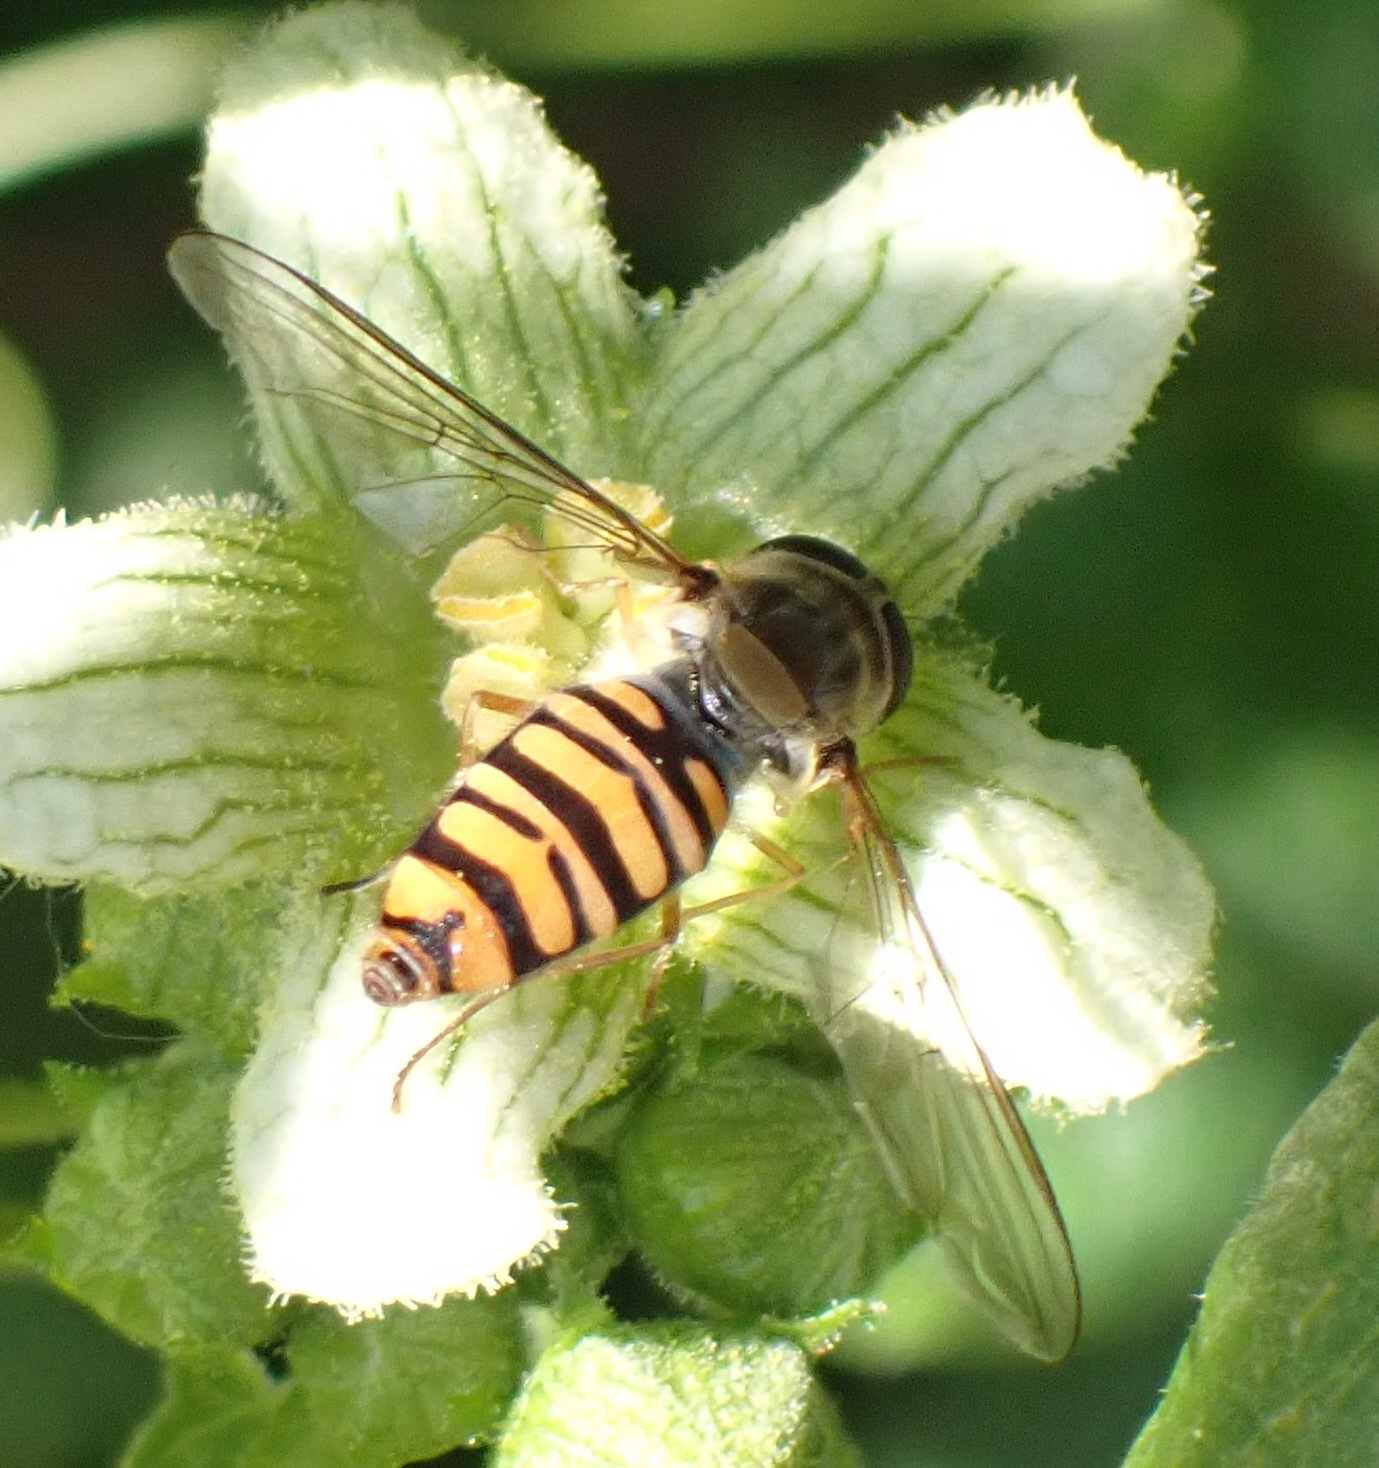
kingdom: Animalia
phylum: Arthropoda
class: Insecta
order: Diptera
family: Syrphidae
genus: Episyrphus
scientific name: Episyrphus balteatus
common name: Marmalade hoverfly
